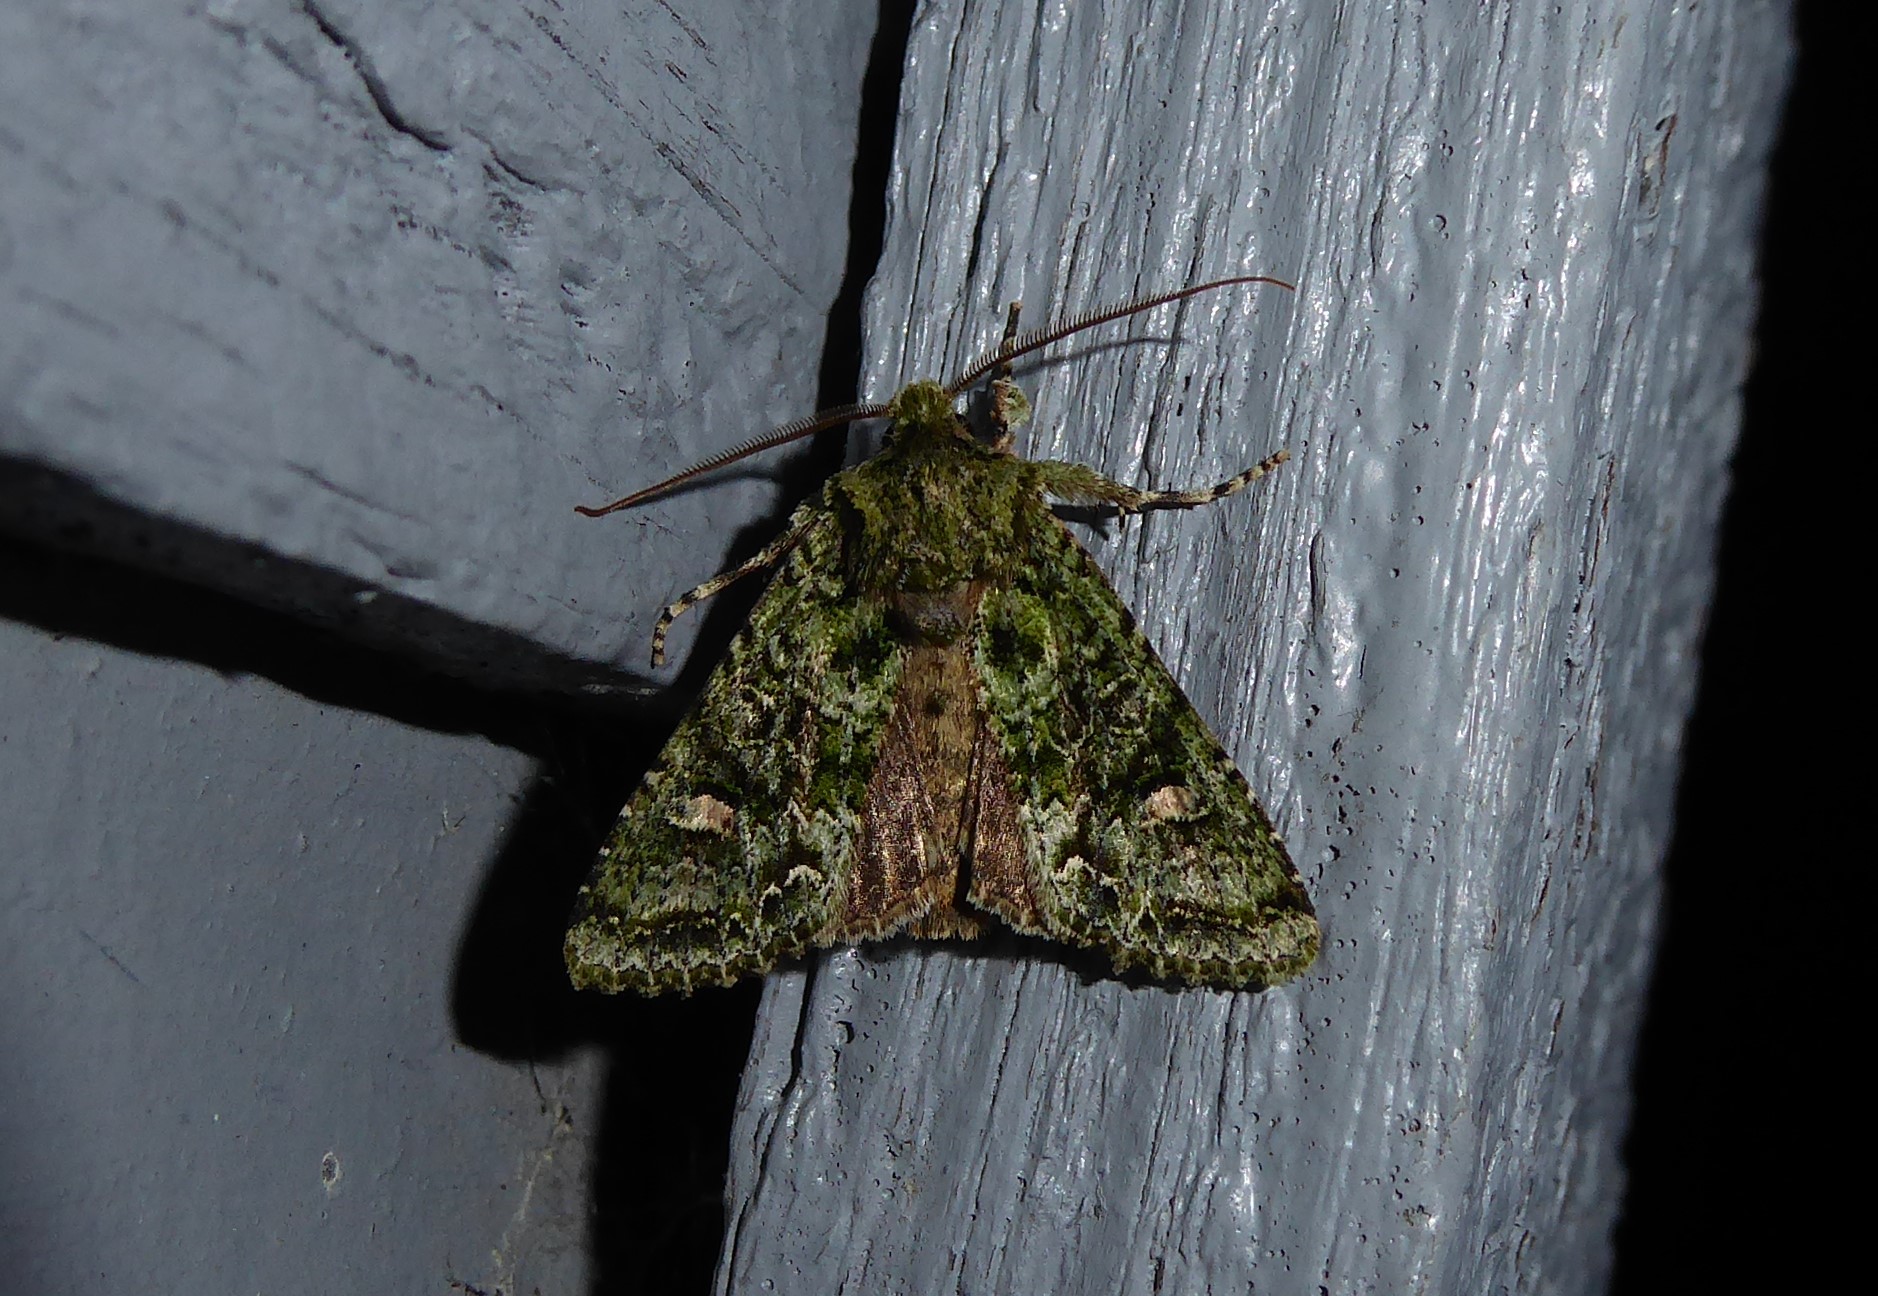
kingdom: Animalia
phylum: Arthropoda
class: Insecta
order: Lepidoptera
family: Noctuidae
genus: Ichneutica
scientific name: Ichneutica
